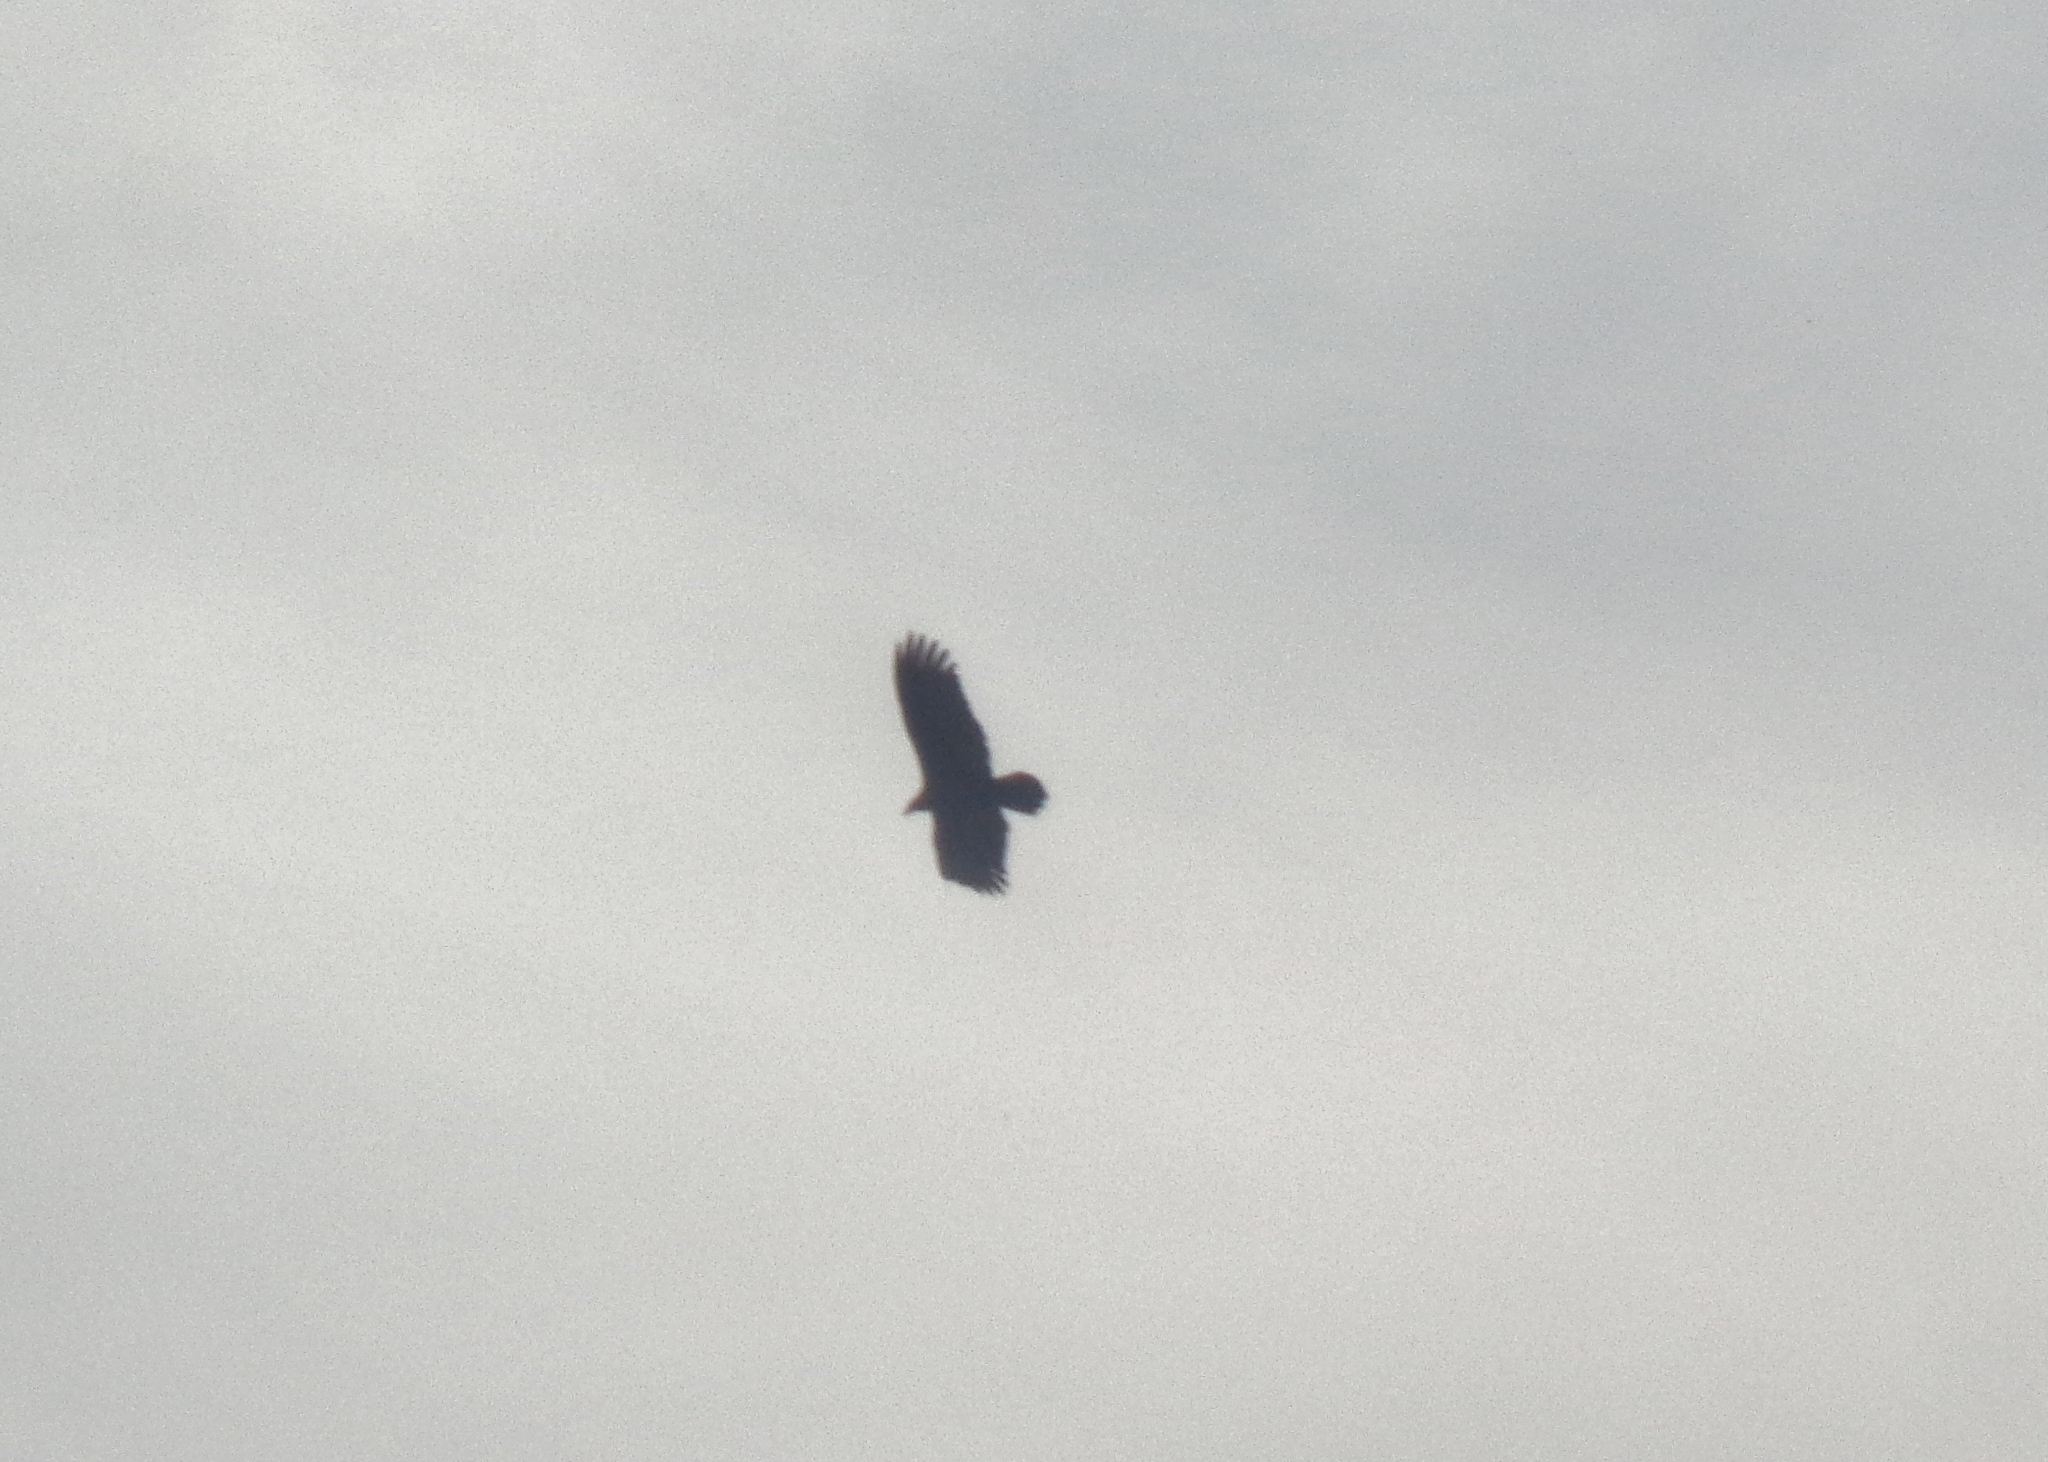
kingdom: Animalia
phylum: Chordata
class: Aves
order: Accipitriformes
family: Cathartidae
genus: Cathartes
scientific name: Cathartes aura
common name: Turkey vulture
